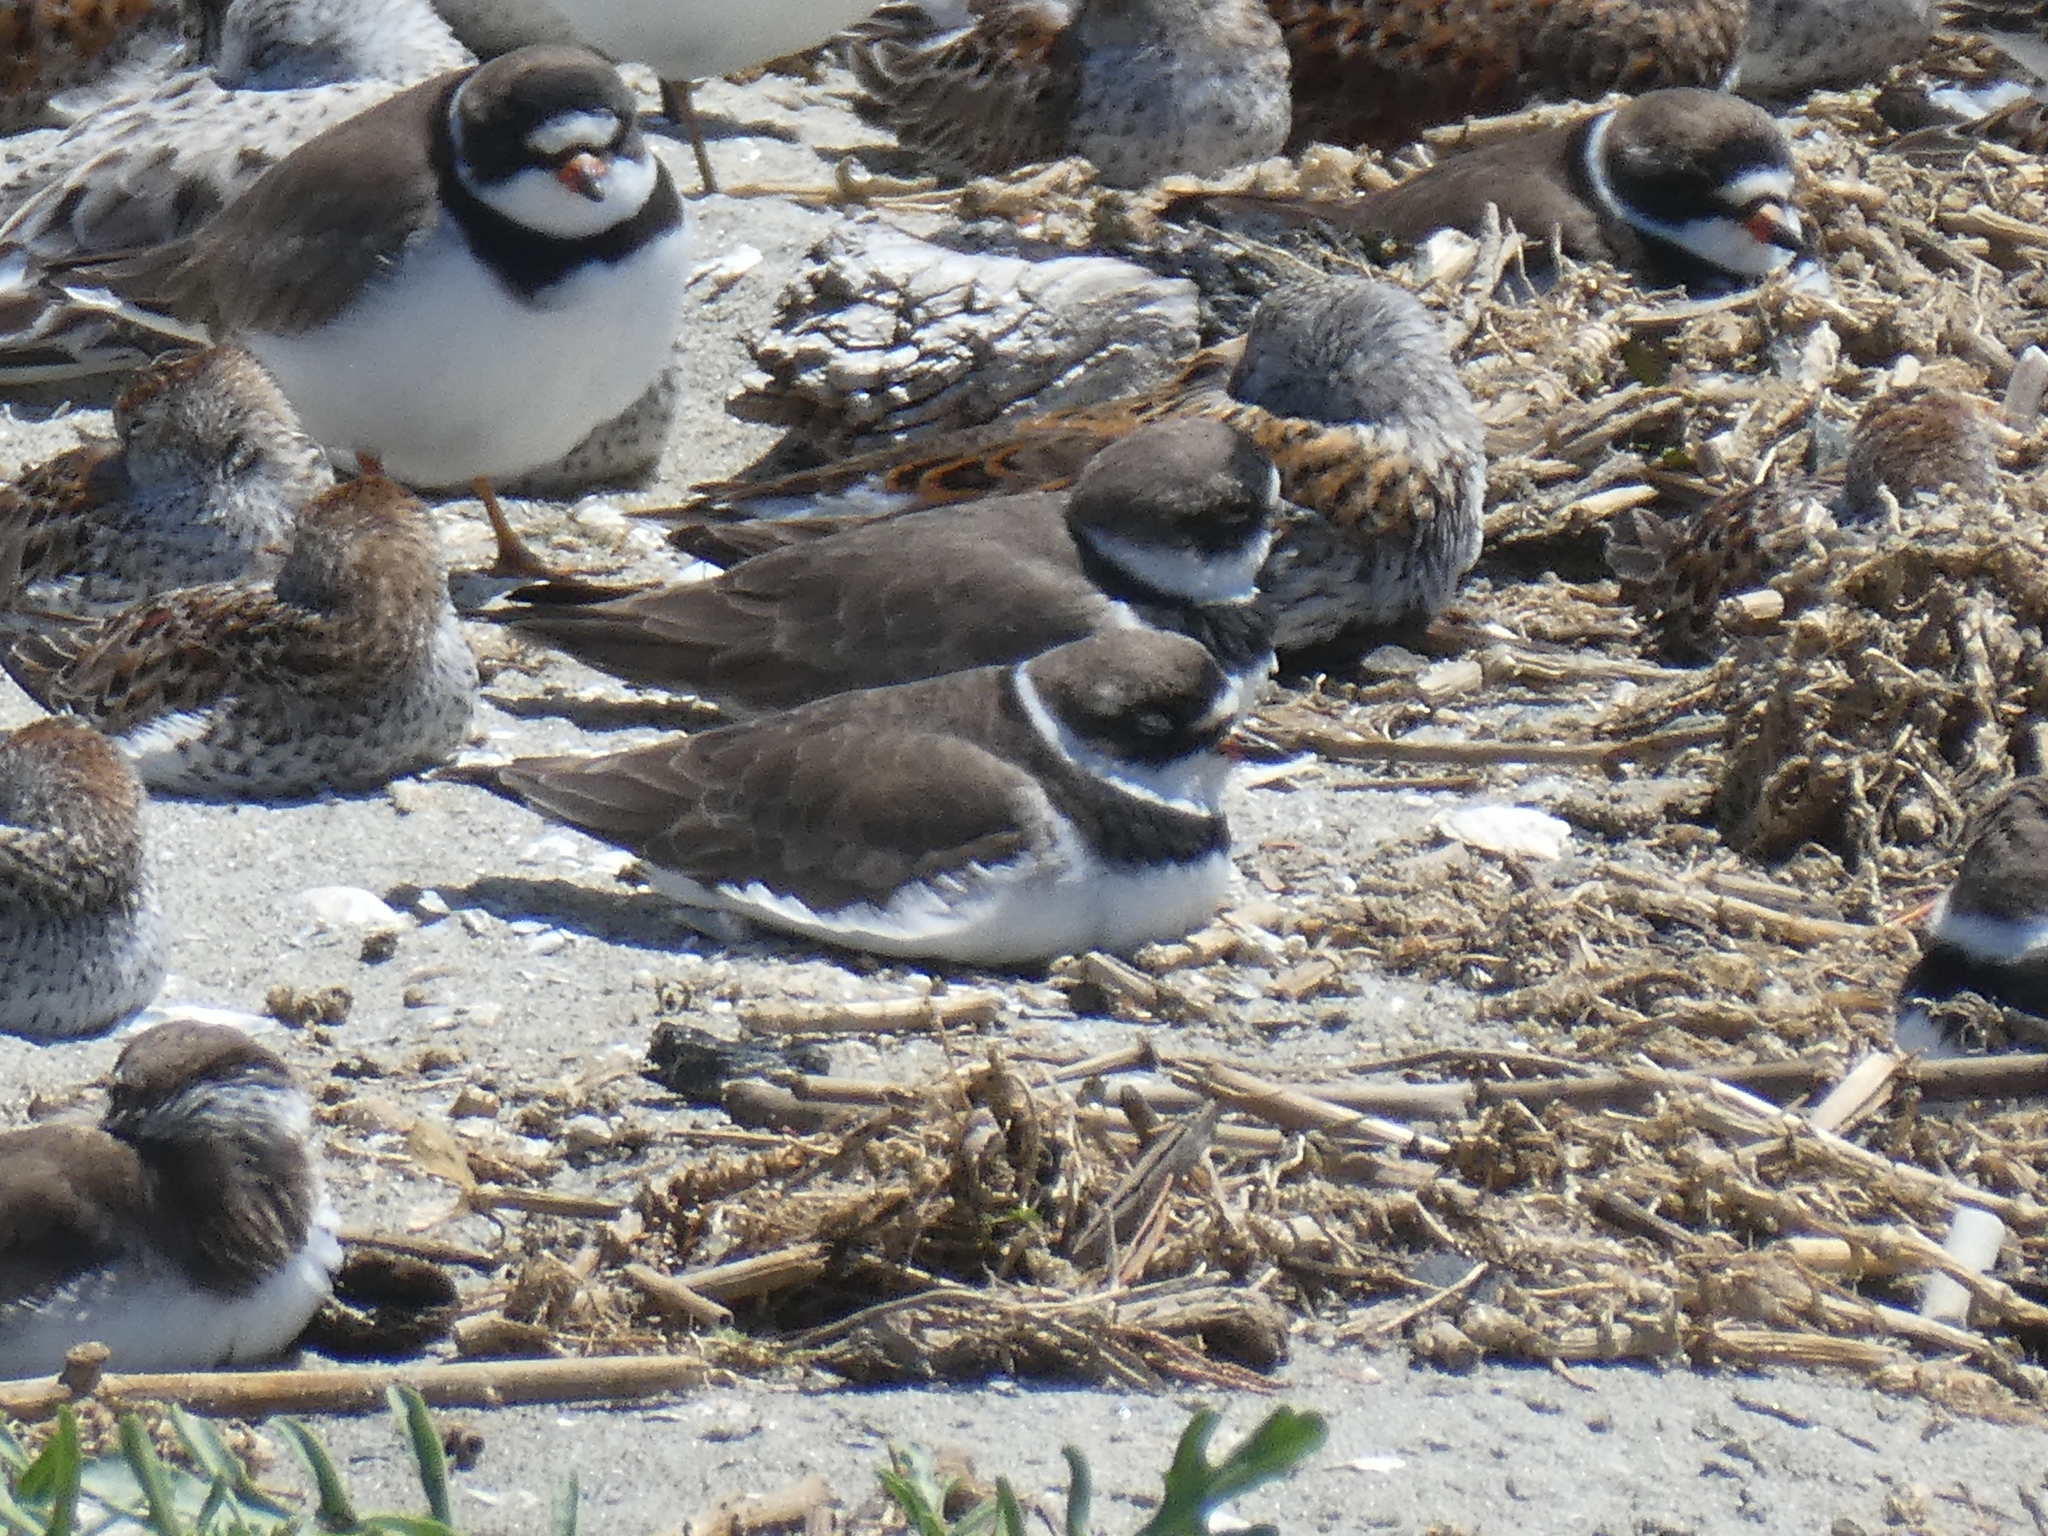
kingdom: Animalia
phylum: Chordata
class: Aves
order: Charadriiformes
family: Charadriidae
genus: Charadrius
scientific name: Charadrius semipalmatus
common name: Semipalmated plover
